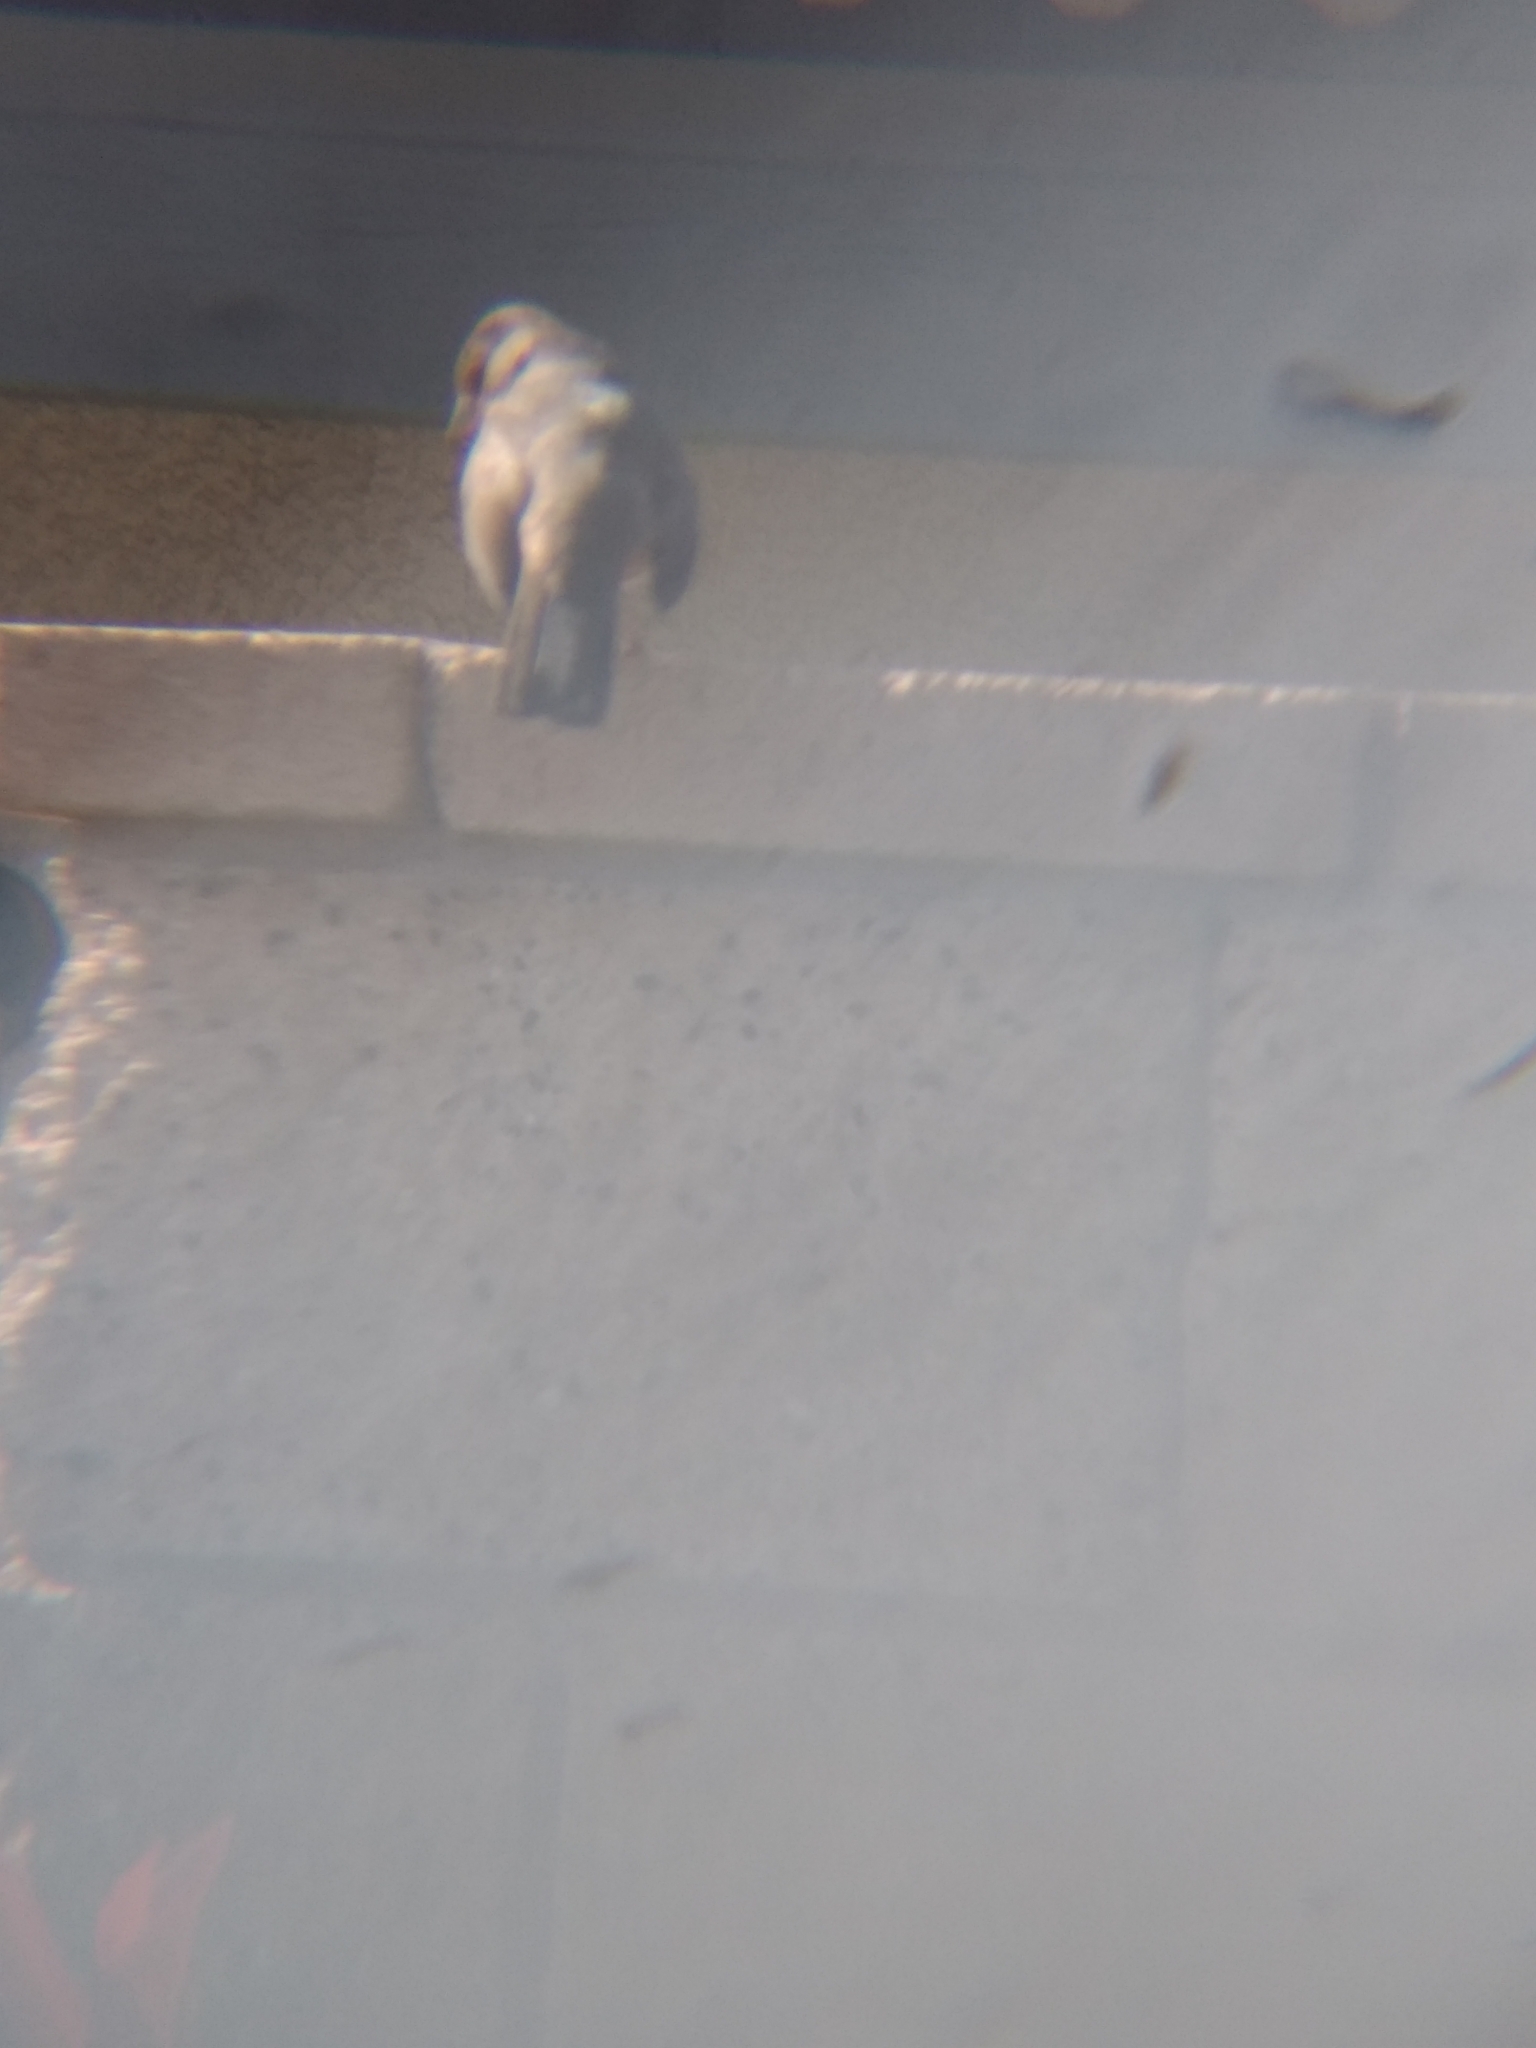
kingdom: Animalia
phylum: Chordata
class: Aves
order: Passeriformes
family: Passerellidae
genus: Melozone
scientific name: Melozone crissalis
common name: California towhee
